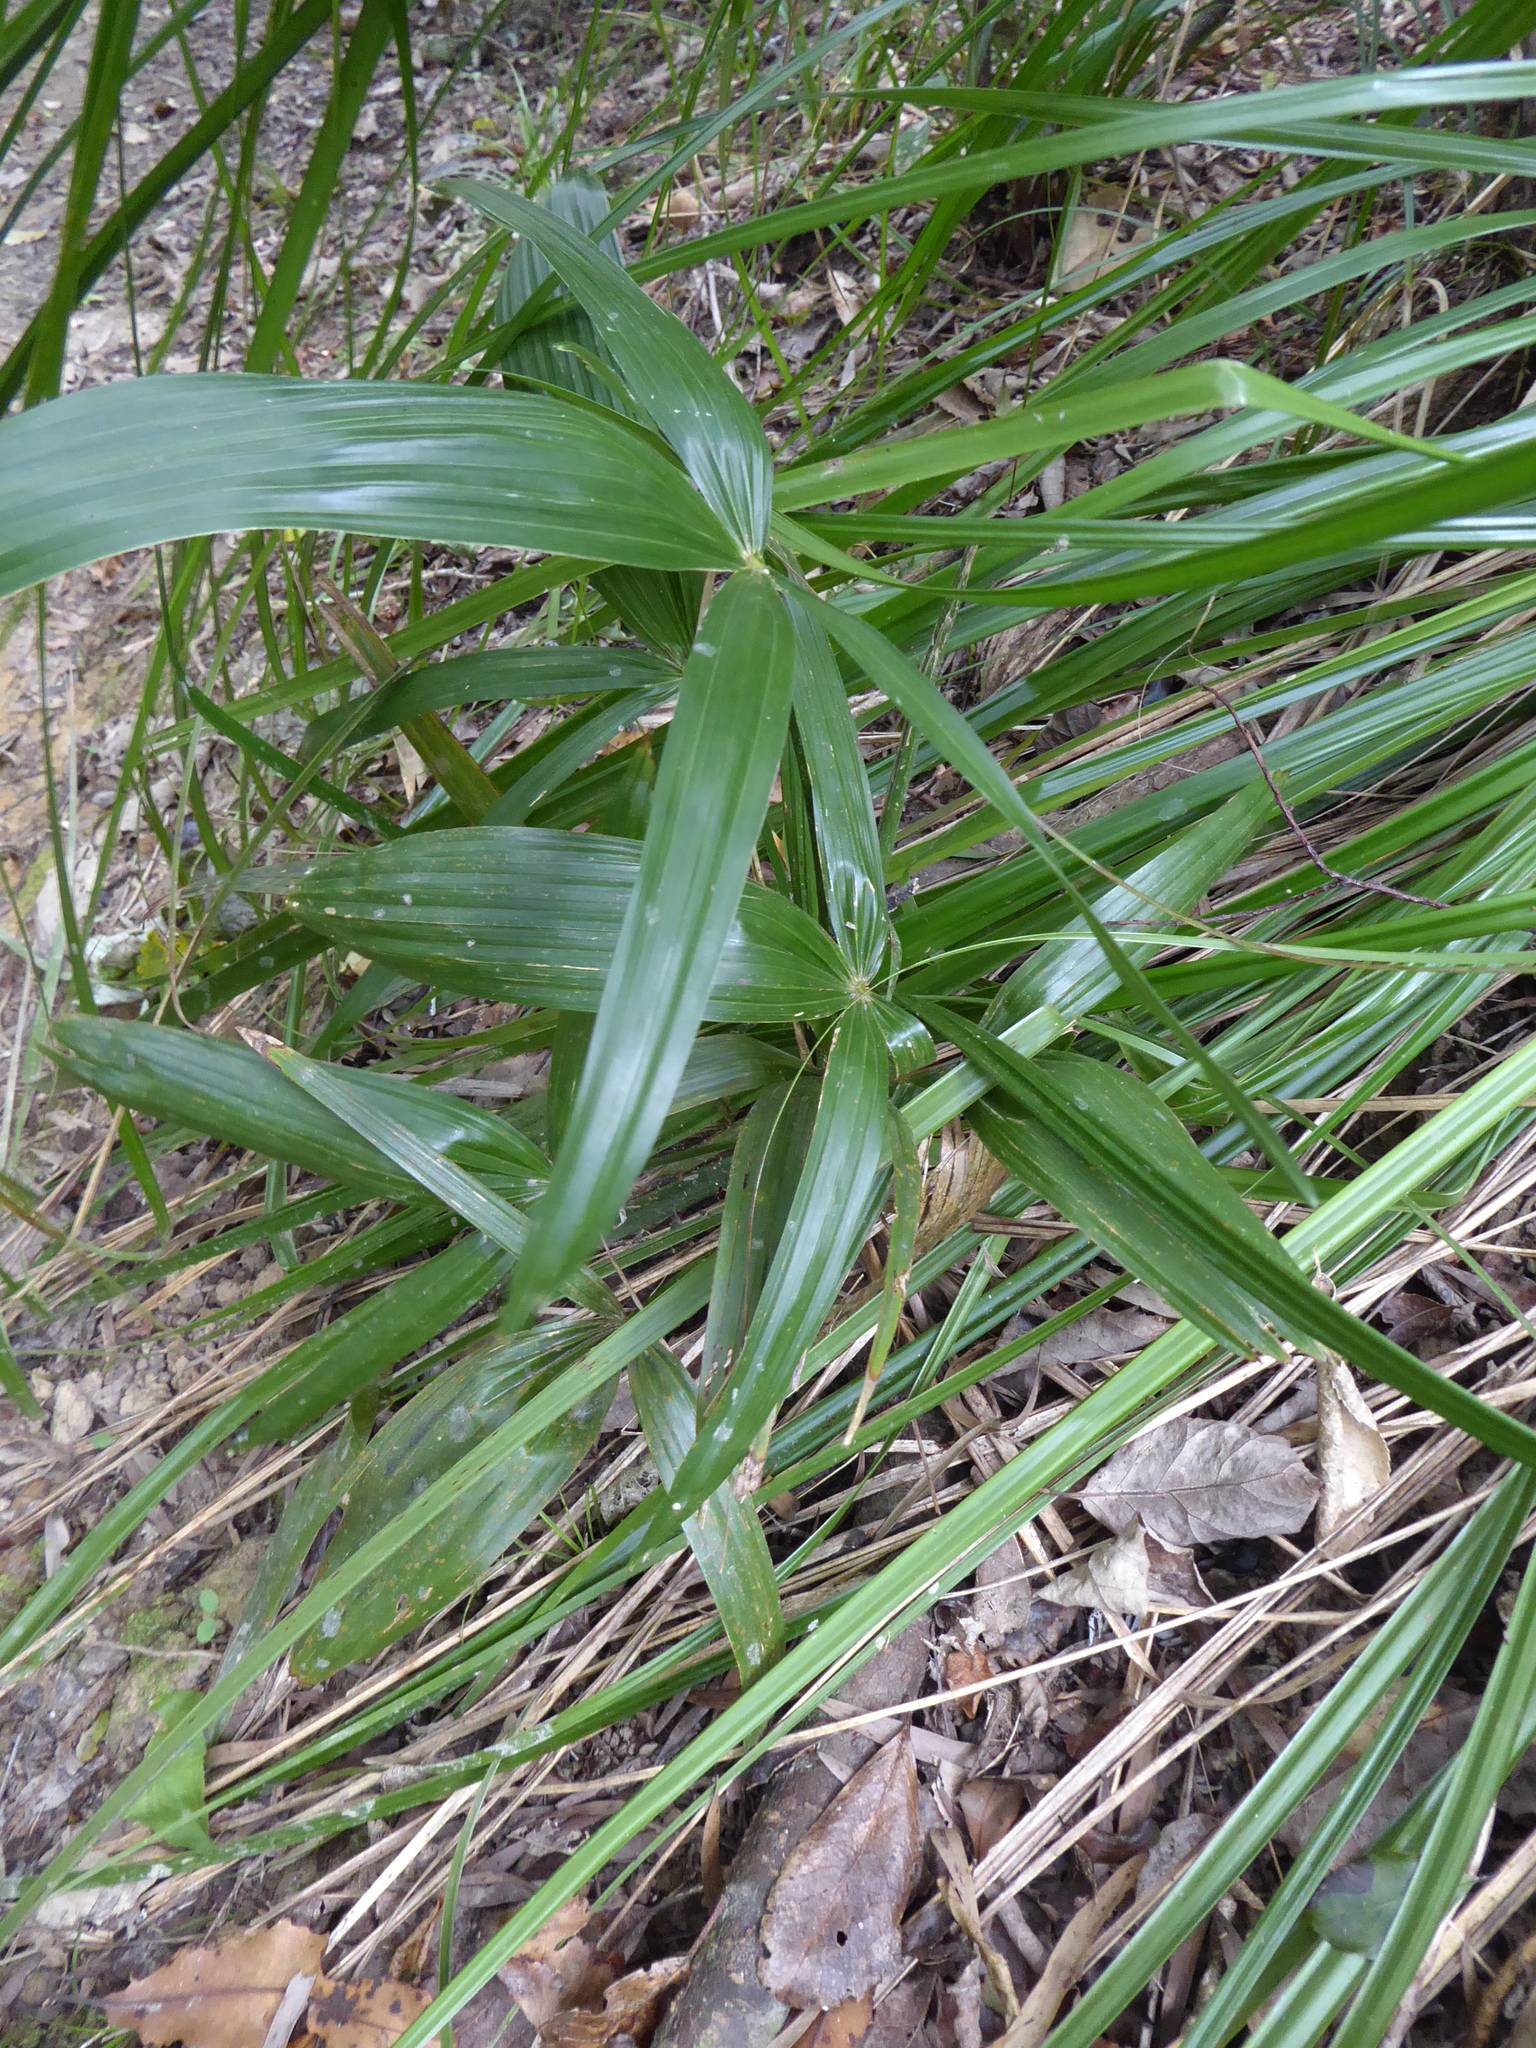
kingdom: Plantae
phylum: Tracheophyta
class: Liliopsida
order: Arecales
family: Arecaceae
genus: Trachycarpus
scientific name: Trachycarpus fortunei
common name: Chusan palm
